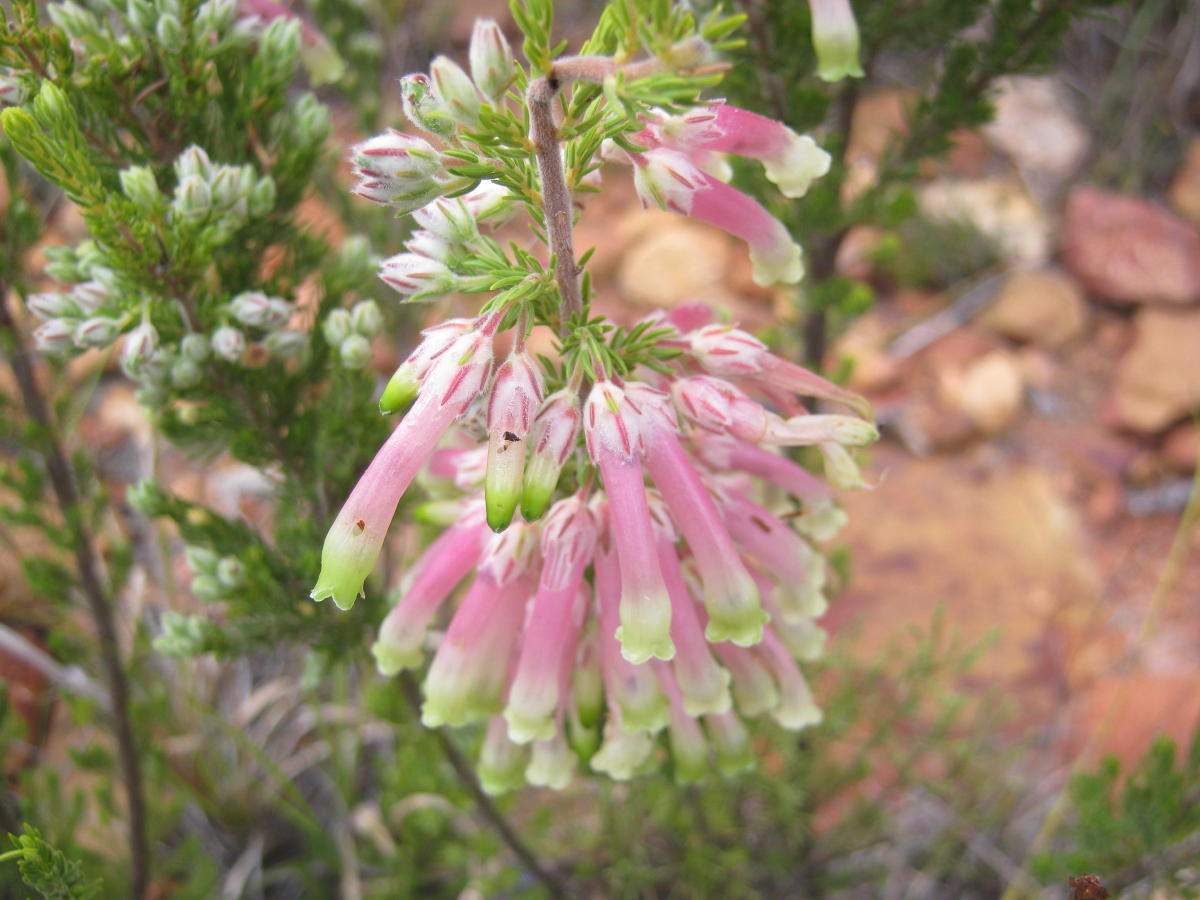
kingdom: Plantae
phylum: Tracheophyta
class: Magnoliopsida
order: Ericales
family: Ericaceae
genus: Erica
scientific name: Erica discolor
